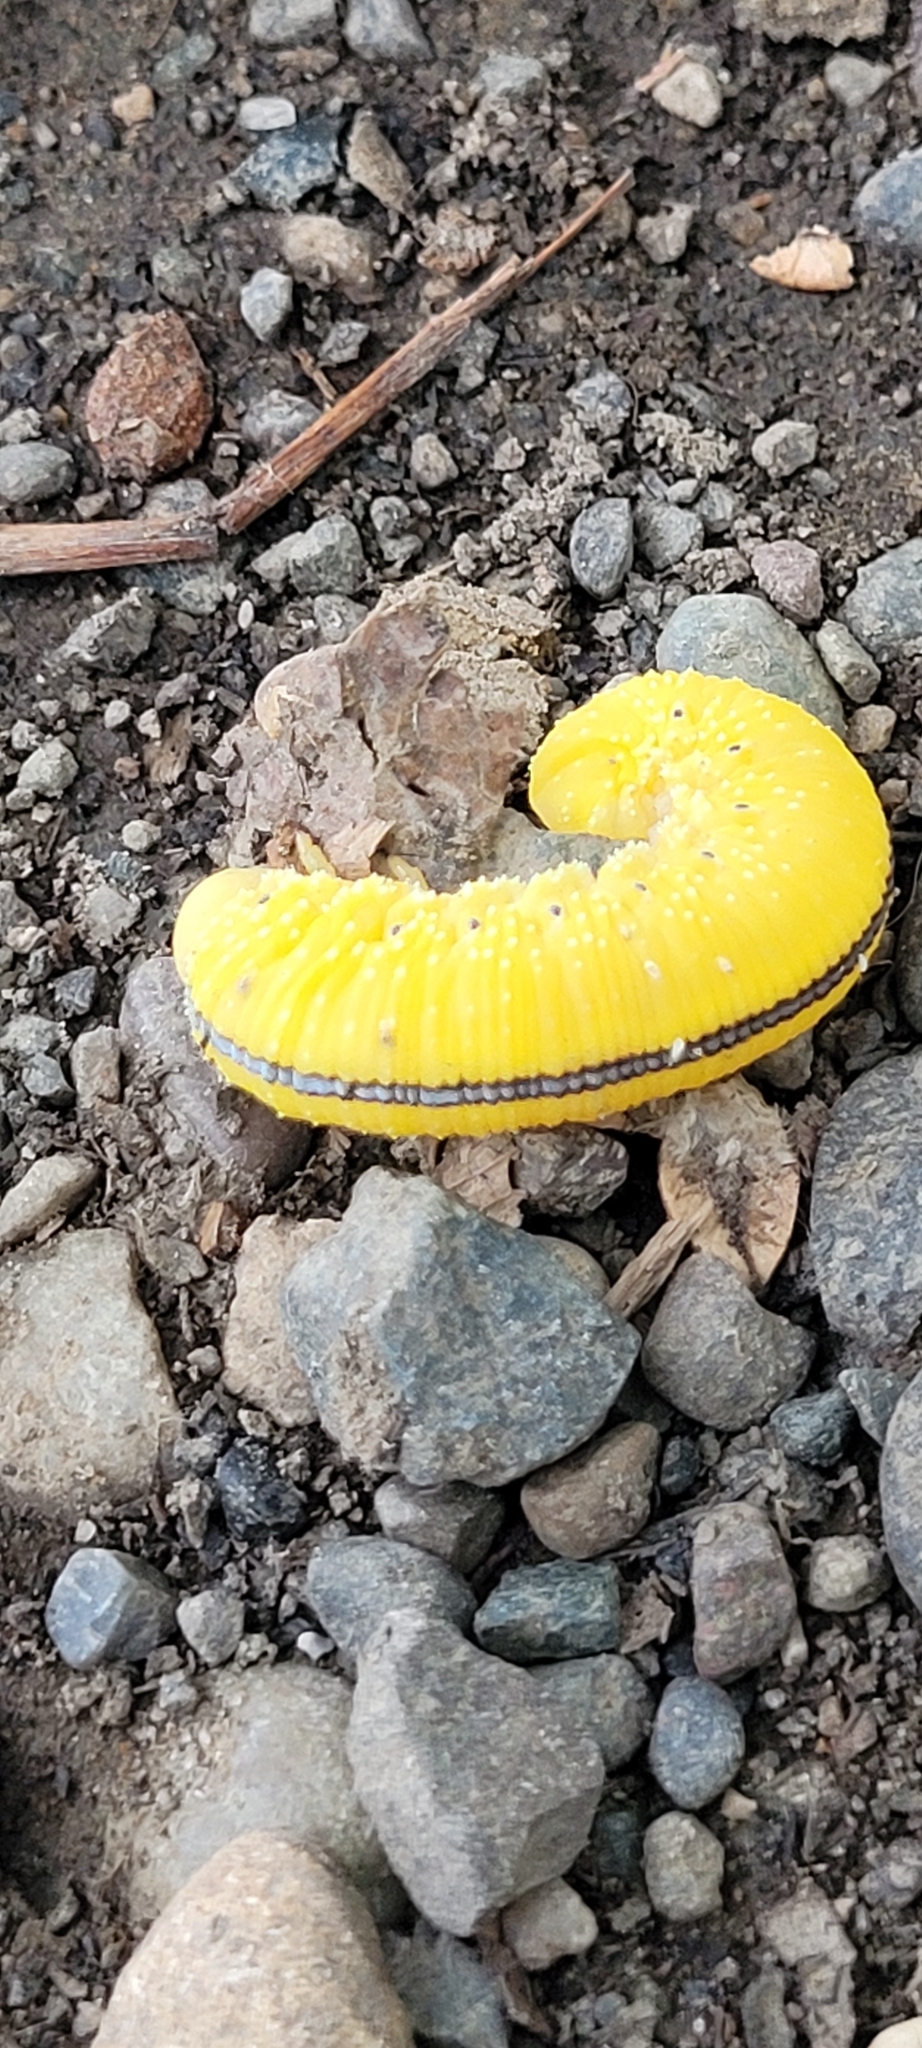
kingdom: Animalia
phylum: Arthropoda
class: Insecta
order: Hymenoptera
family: Cimbicidae
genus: Cimbex
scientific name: Cimbex americana
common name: Elm sawfly
